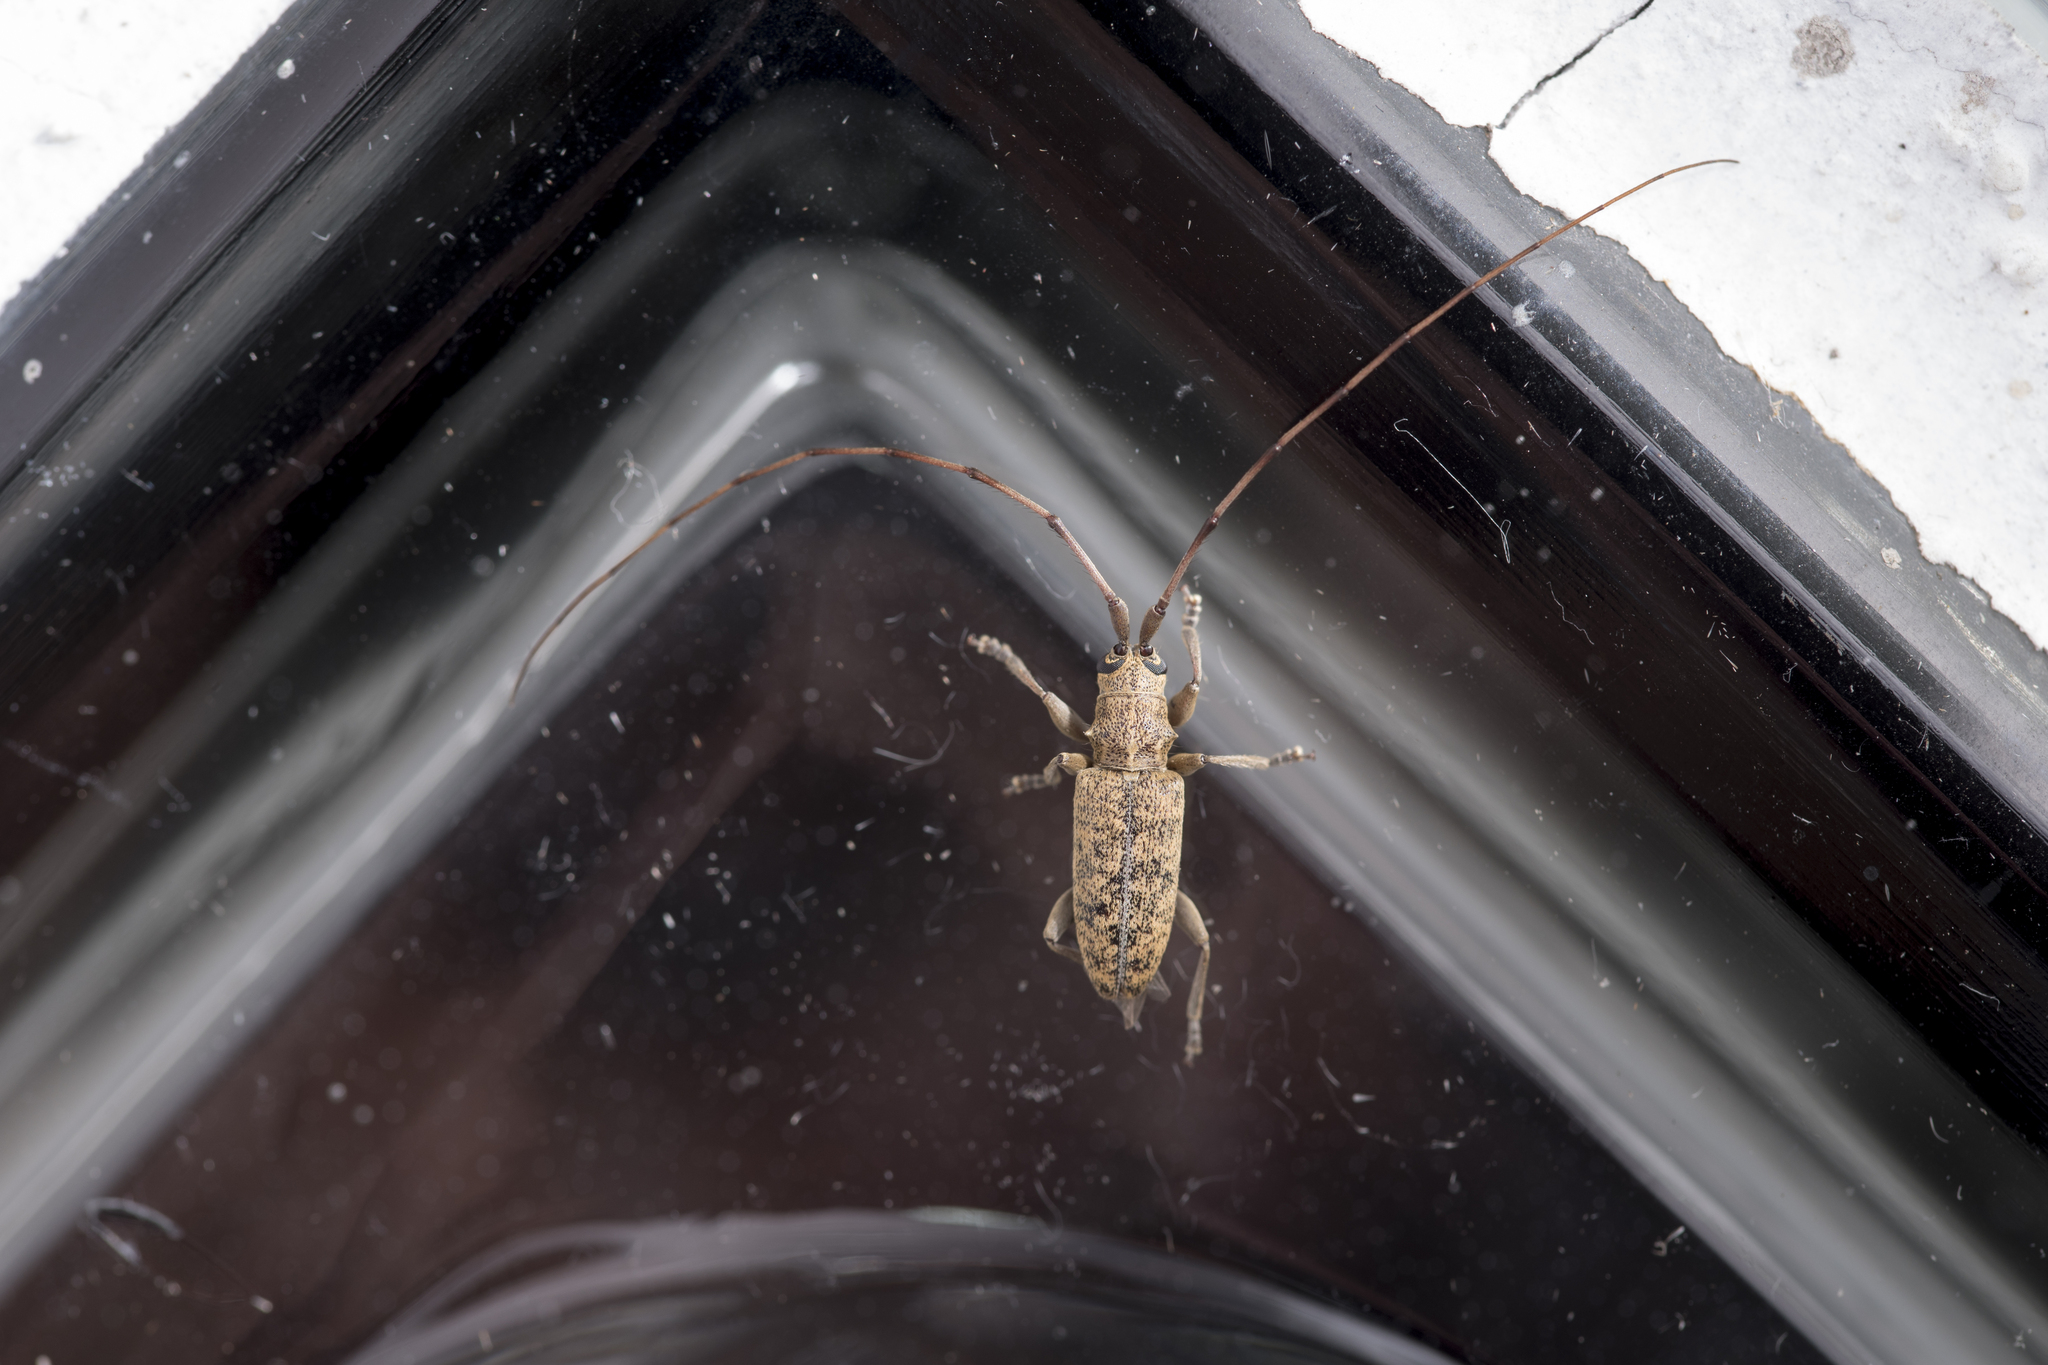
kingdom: Animalia
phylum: Arthropoda
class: Insecta
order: Coleoptera
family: Cerambycidae
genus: Xenolea
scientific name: Xenolea asiatica
